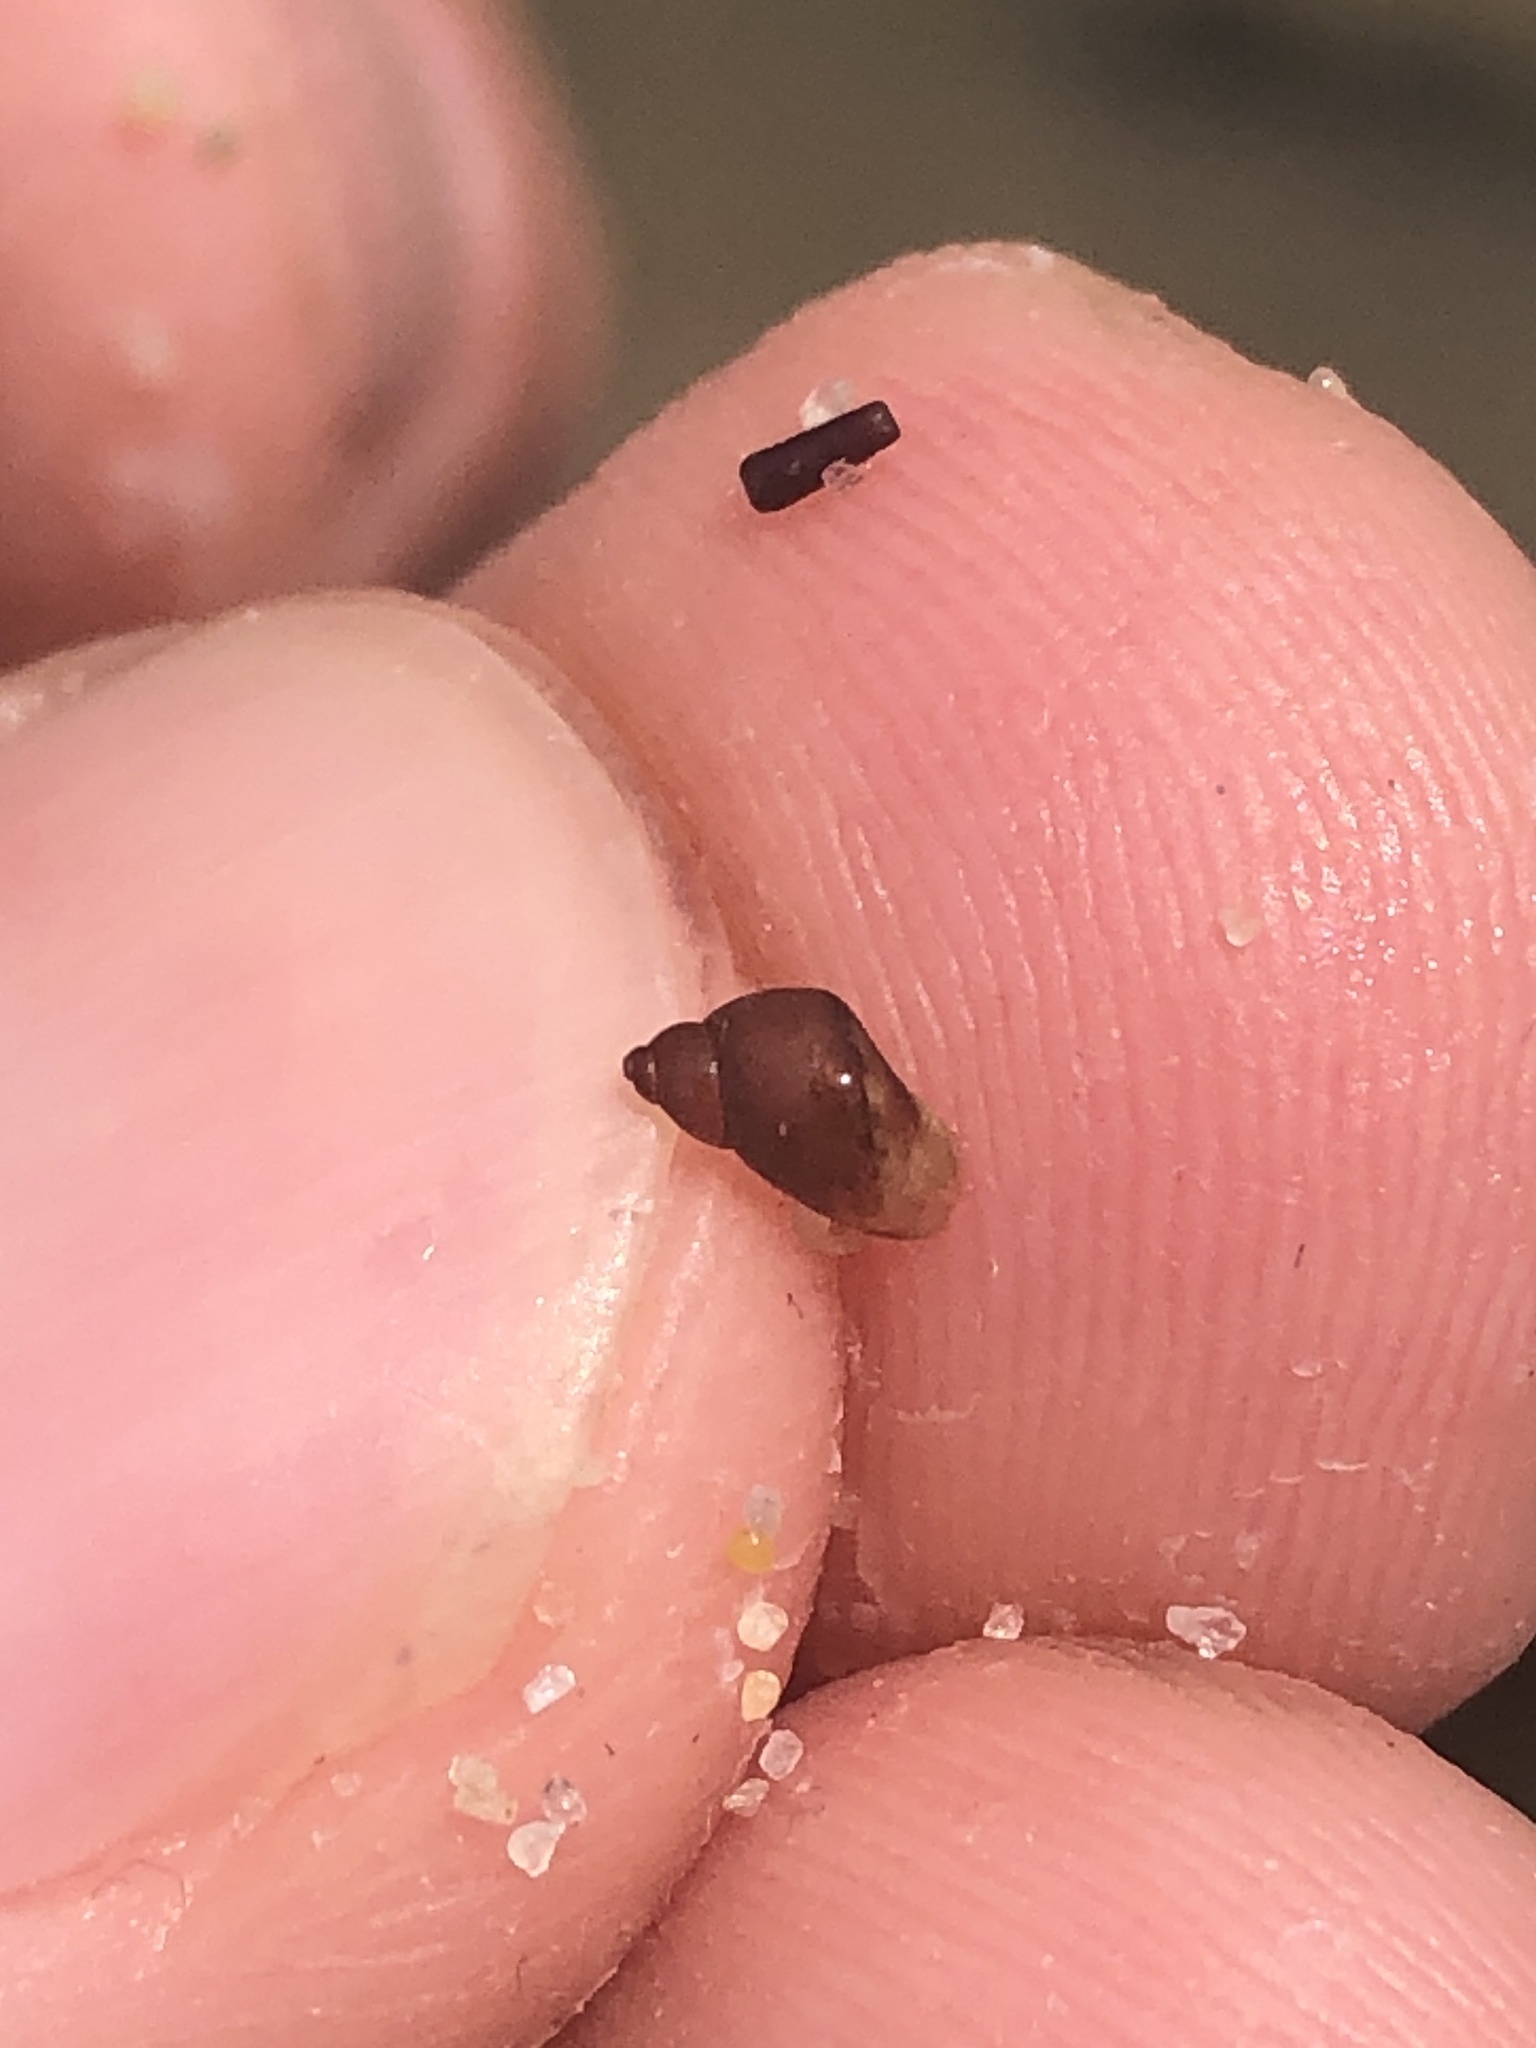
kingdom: Animalia
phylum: Mollusca
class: Gastropoda
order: Littorinimorpha
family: Littorinidae
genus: Lacuna
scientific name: Lacuna unifasciata
